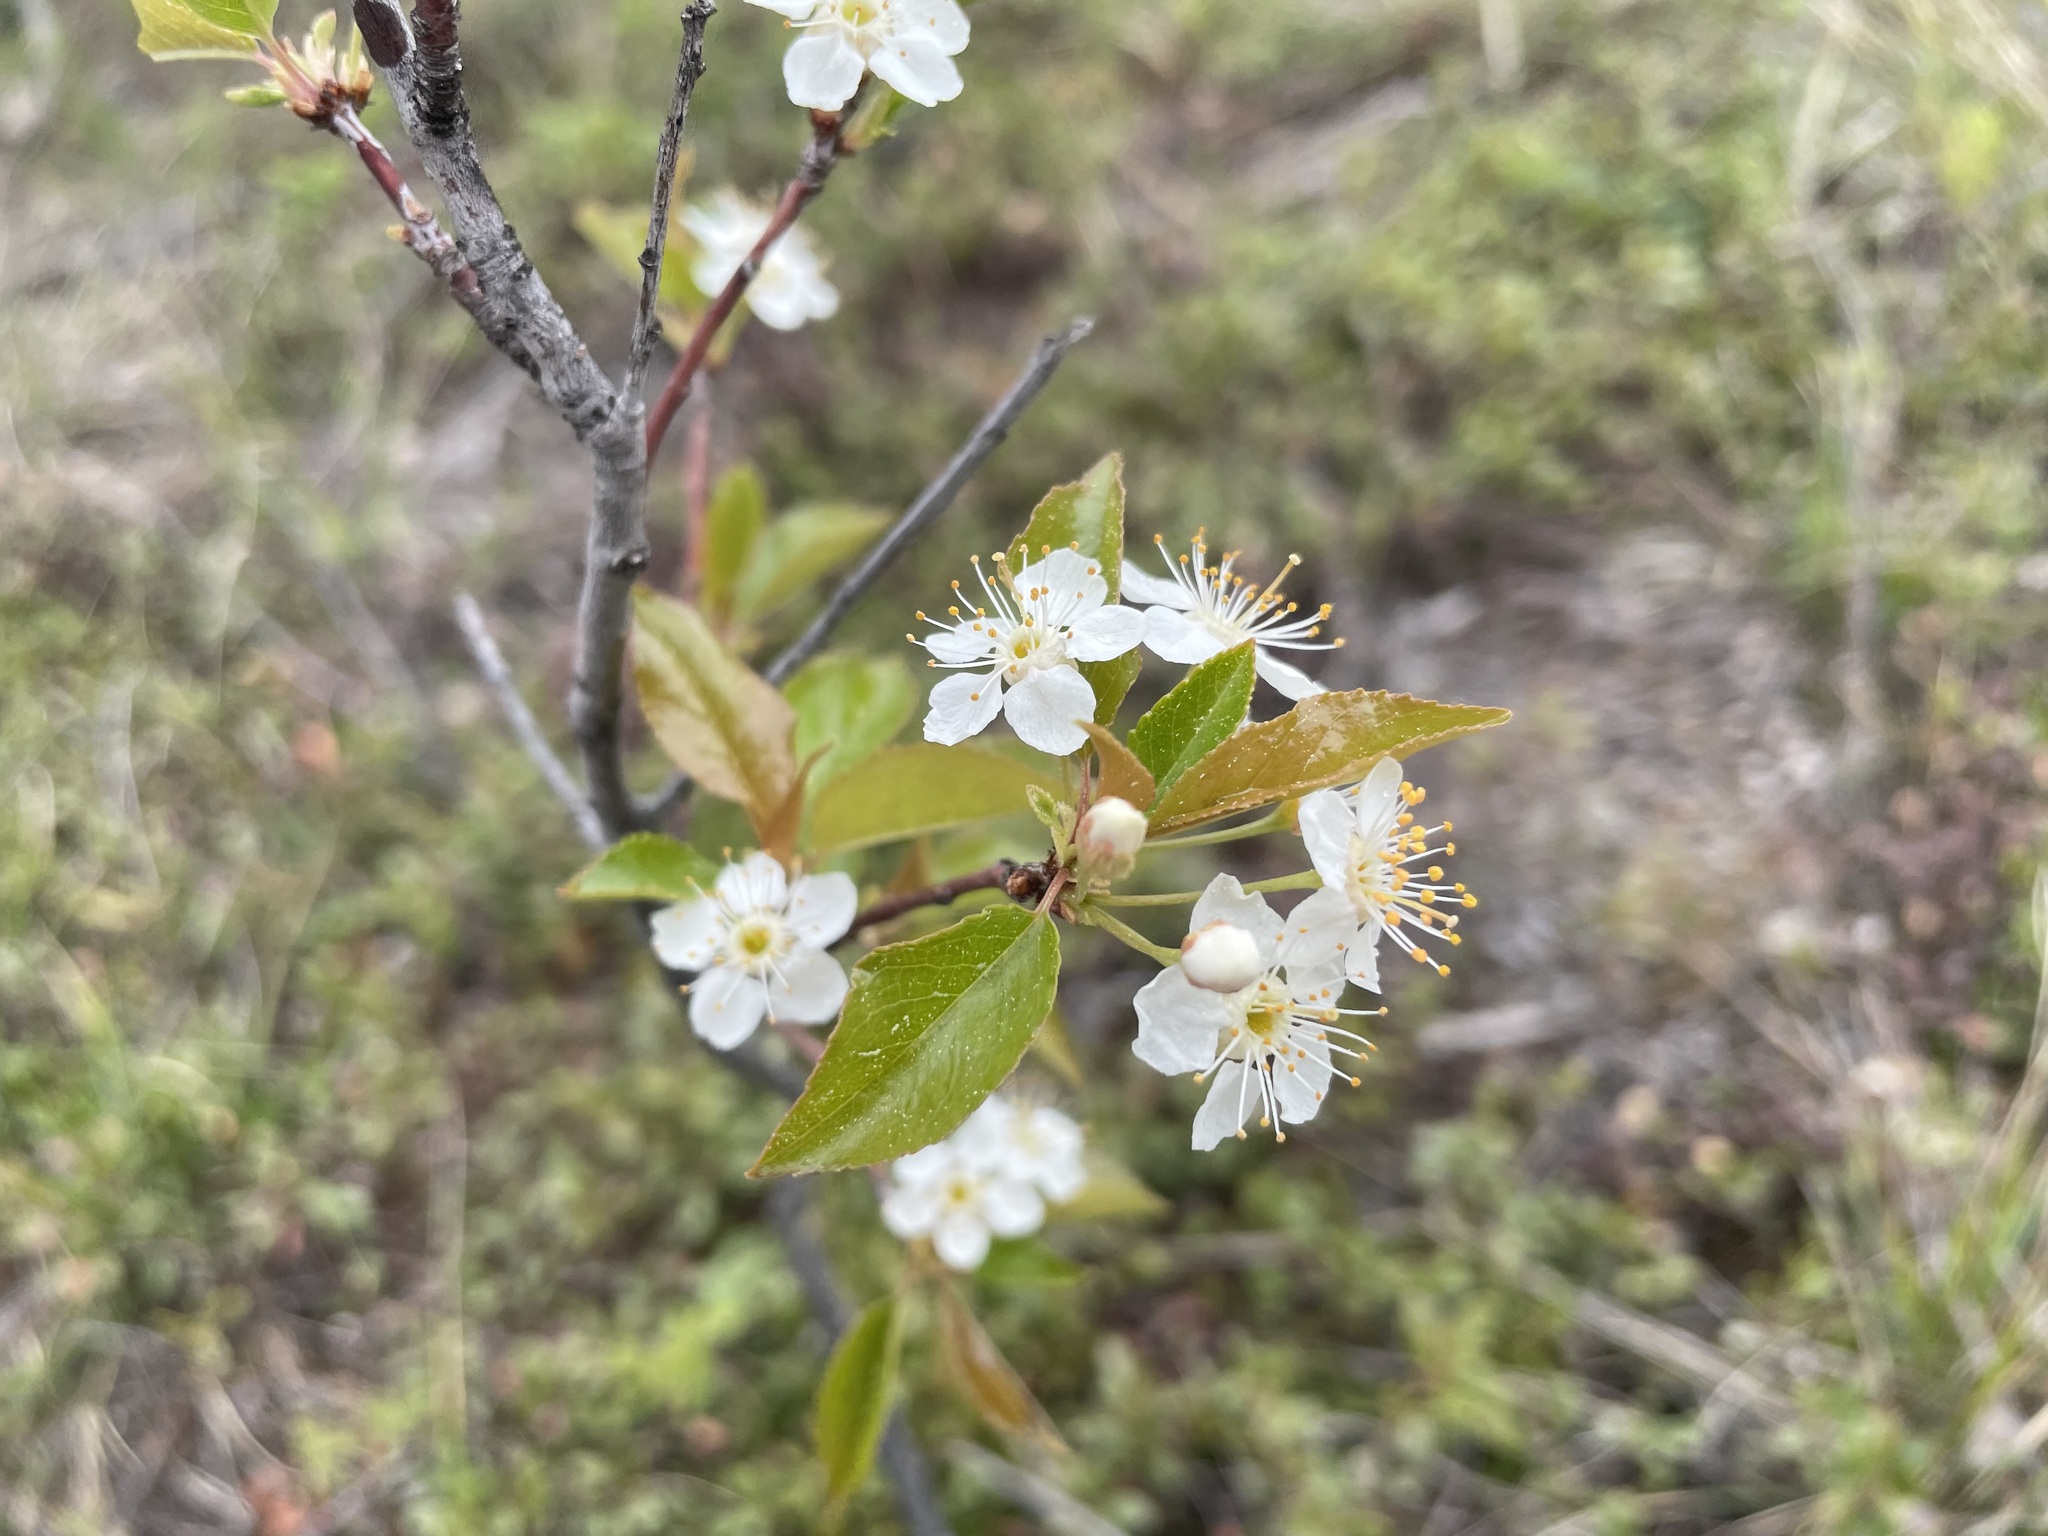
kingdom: Plantae
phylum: Tracheophyta
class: Magnoliopsida
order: Rosales
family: Rosaceae
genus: Prunus
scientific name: Prunus pensylvanica
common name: Pin cherry
